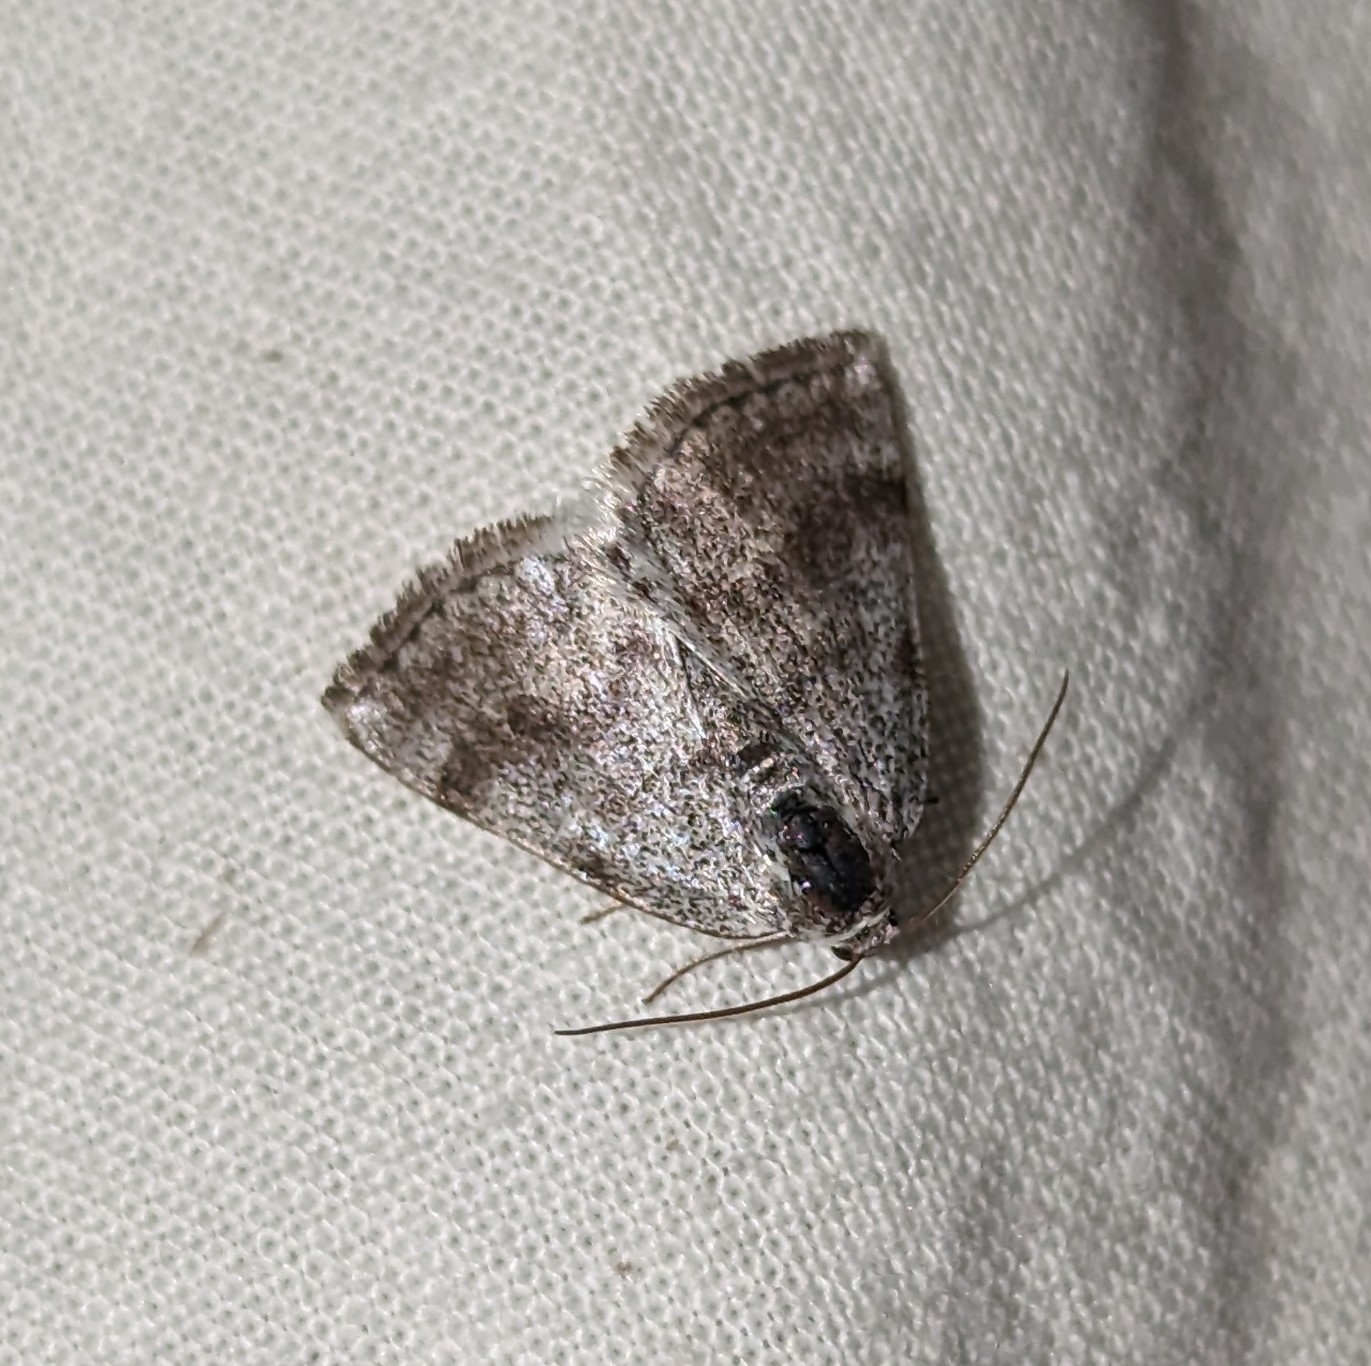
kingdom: Animalia
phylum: Arthropoda
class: Insecta
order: Lepidoptera
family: Geometridae
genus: Lomographa
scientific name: Lomographa semiclarata
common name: Bluish spring moth
